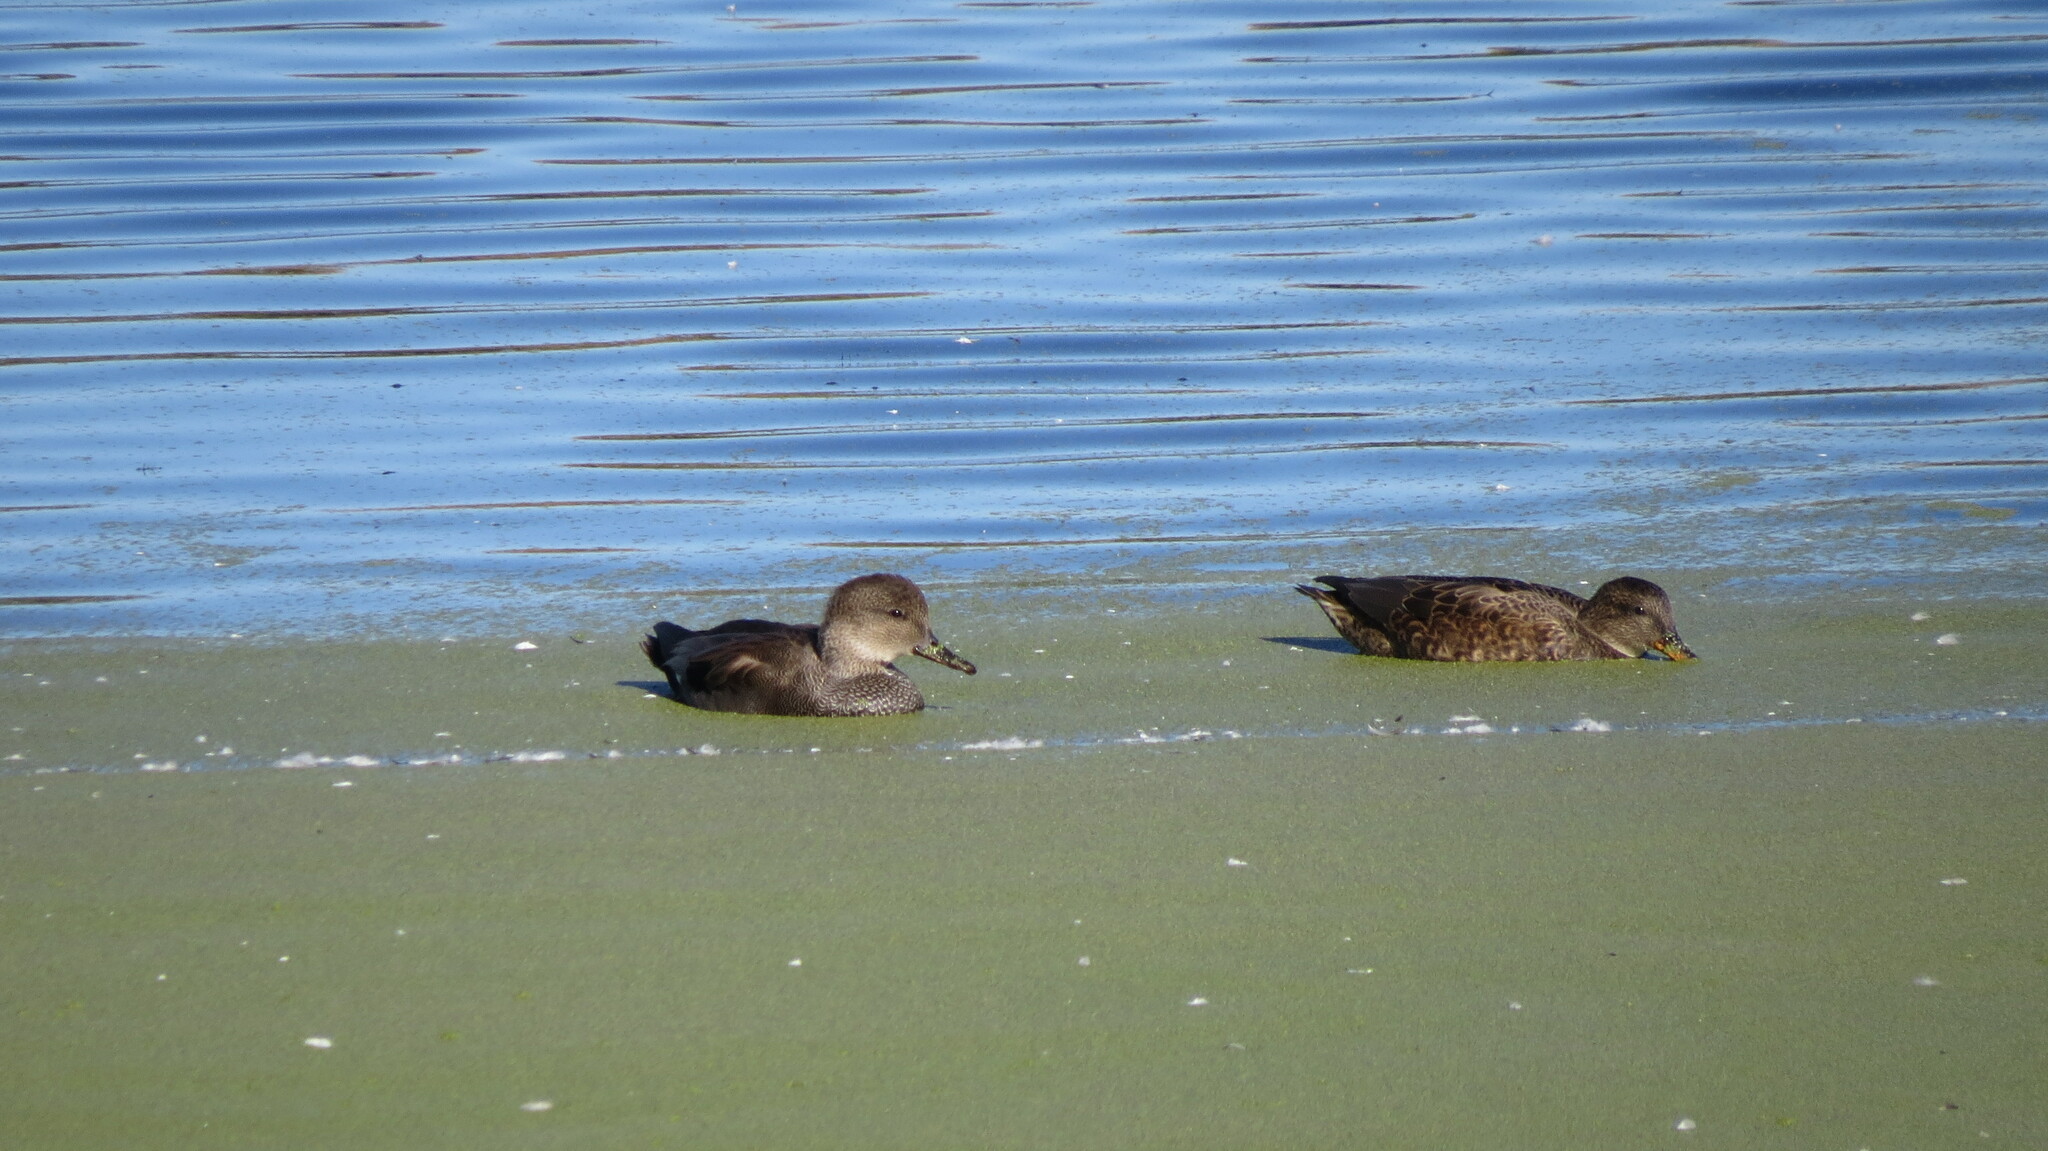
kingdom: Animalia
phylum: Chordata
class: Aves
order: Anseriformes
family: Anatidae
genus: Mareca
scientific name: Mareca strepera
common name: Gadwall
